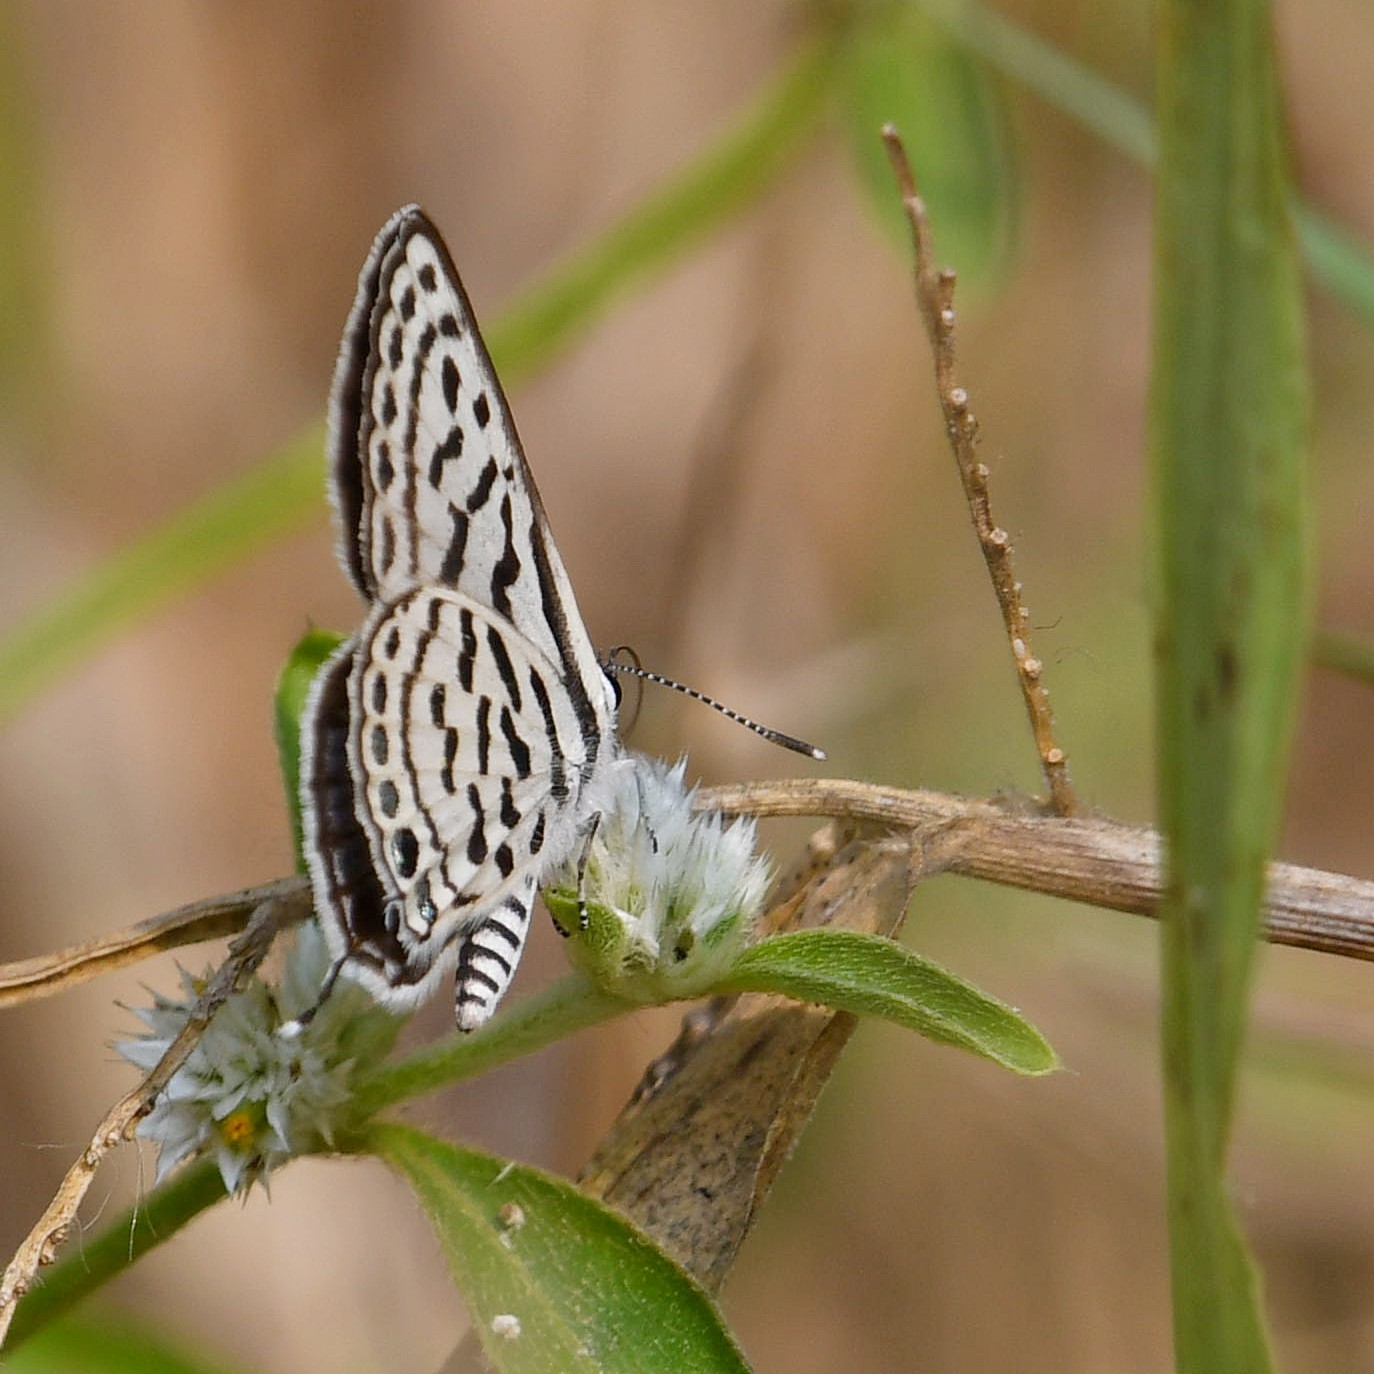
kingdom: Animalia
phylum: Arthropoda
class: Insecta
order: Lepidoptera
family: Lycaenidae
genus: Tarucus
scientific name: Tarucus balkanica
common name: Little tiger blue
